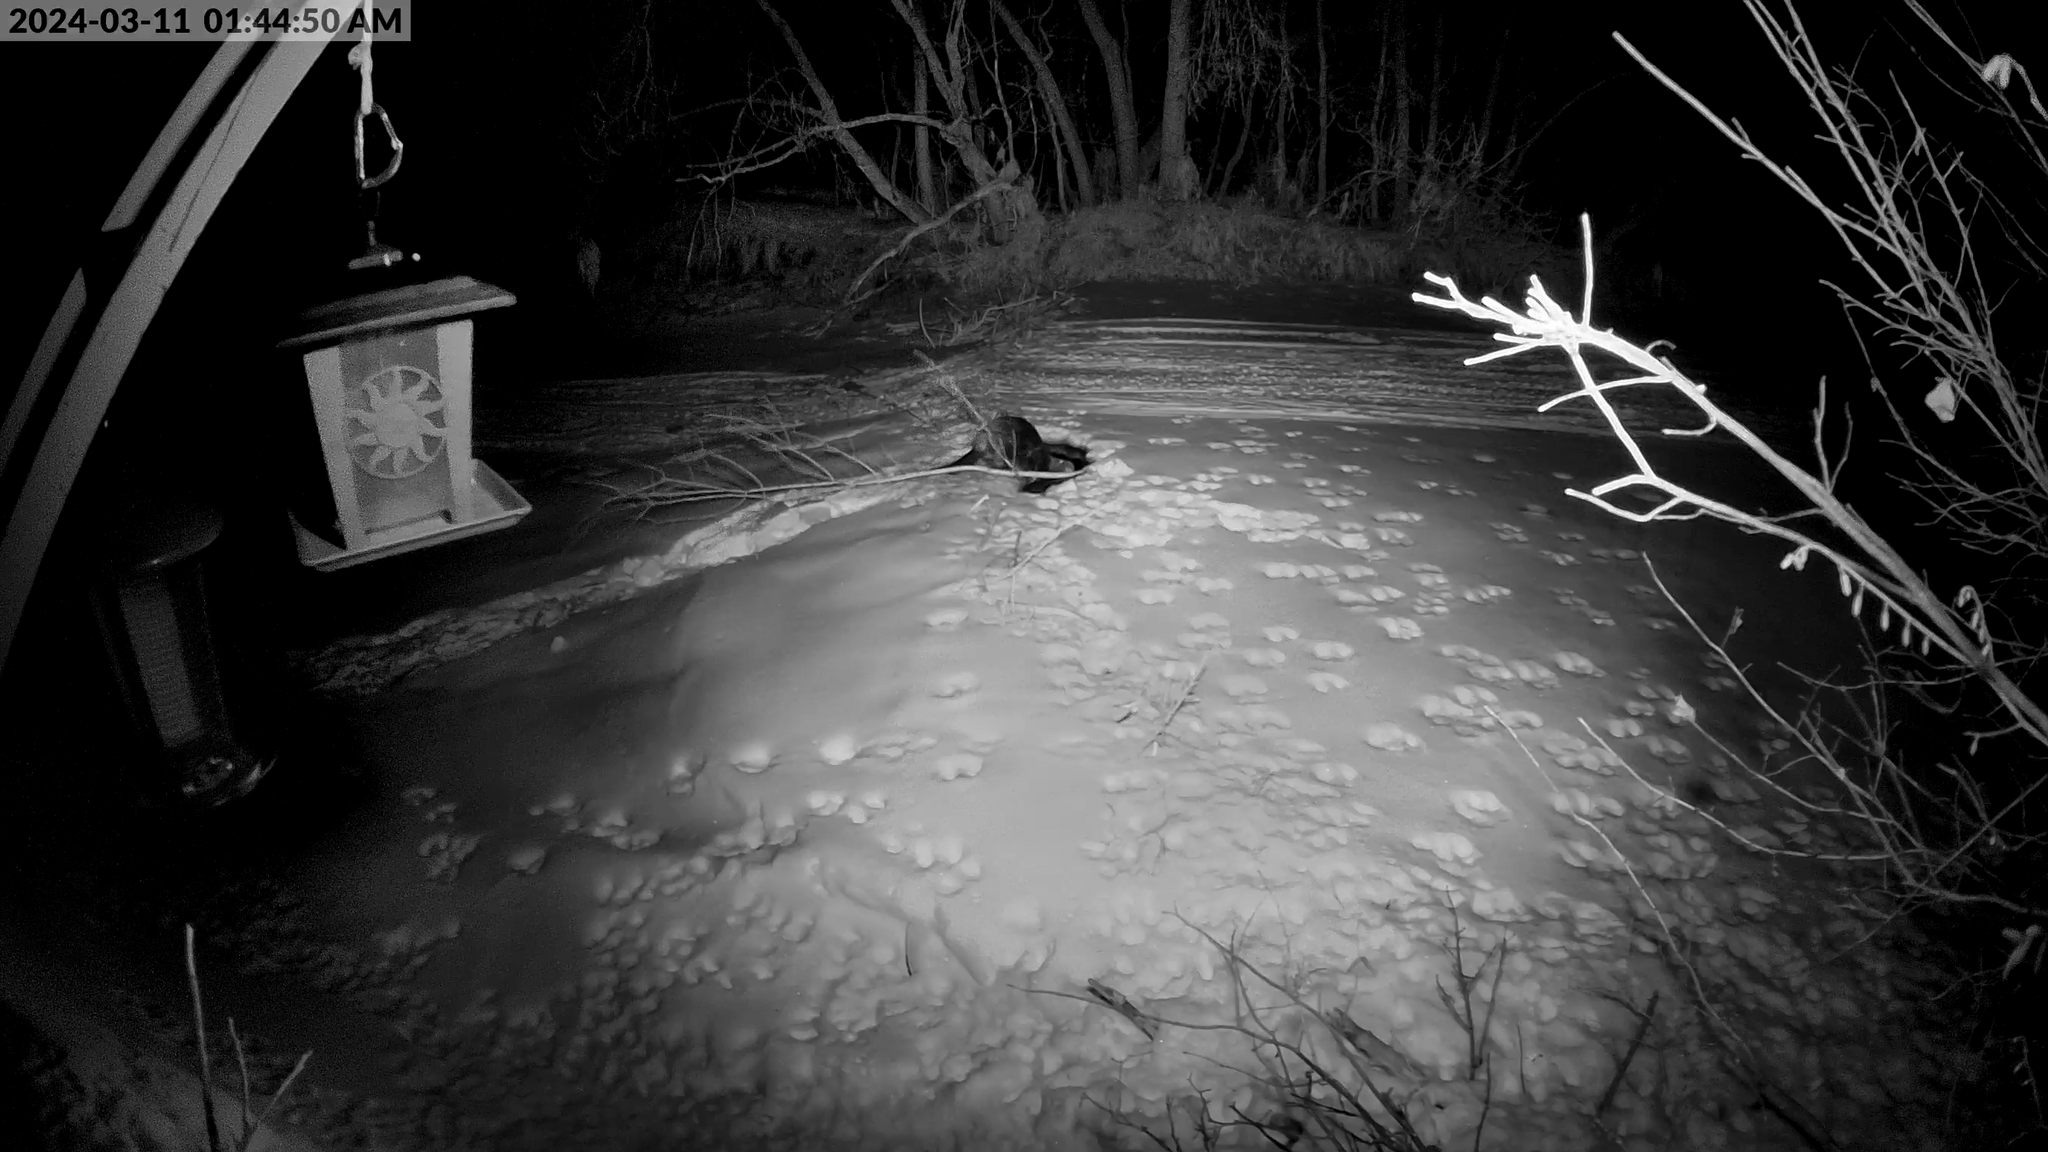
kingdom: Animalia
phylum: Chordata
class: Mammalia
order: Rodentia
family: Castoridae
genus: Castor
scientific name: Castor canadensis
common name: American beaver
